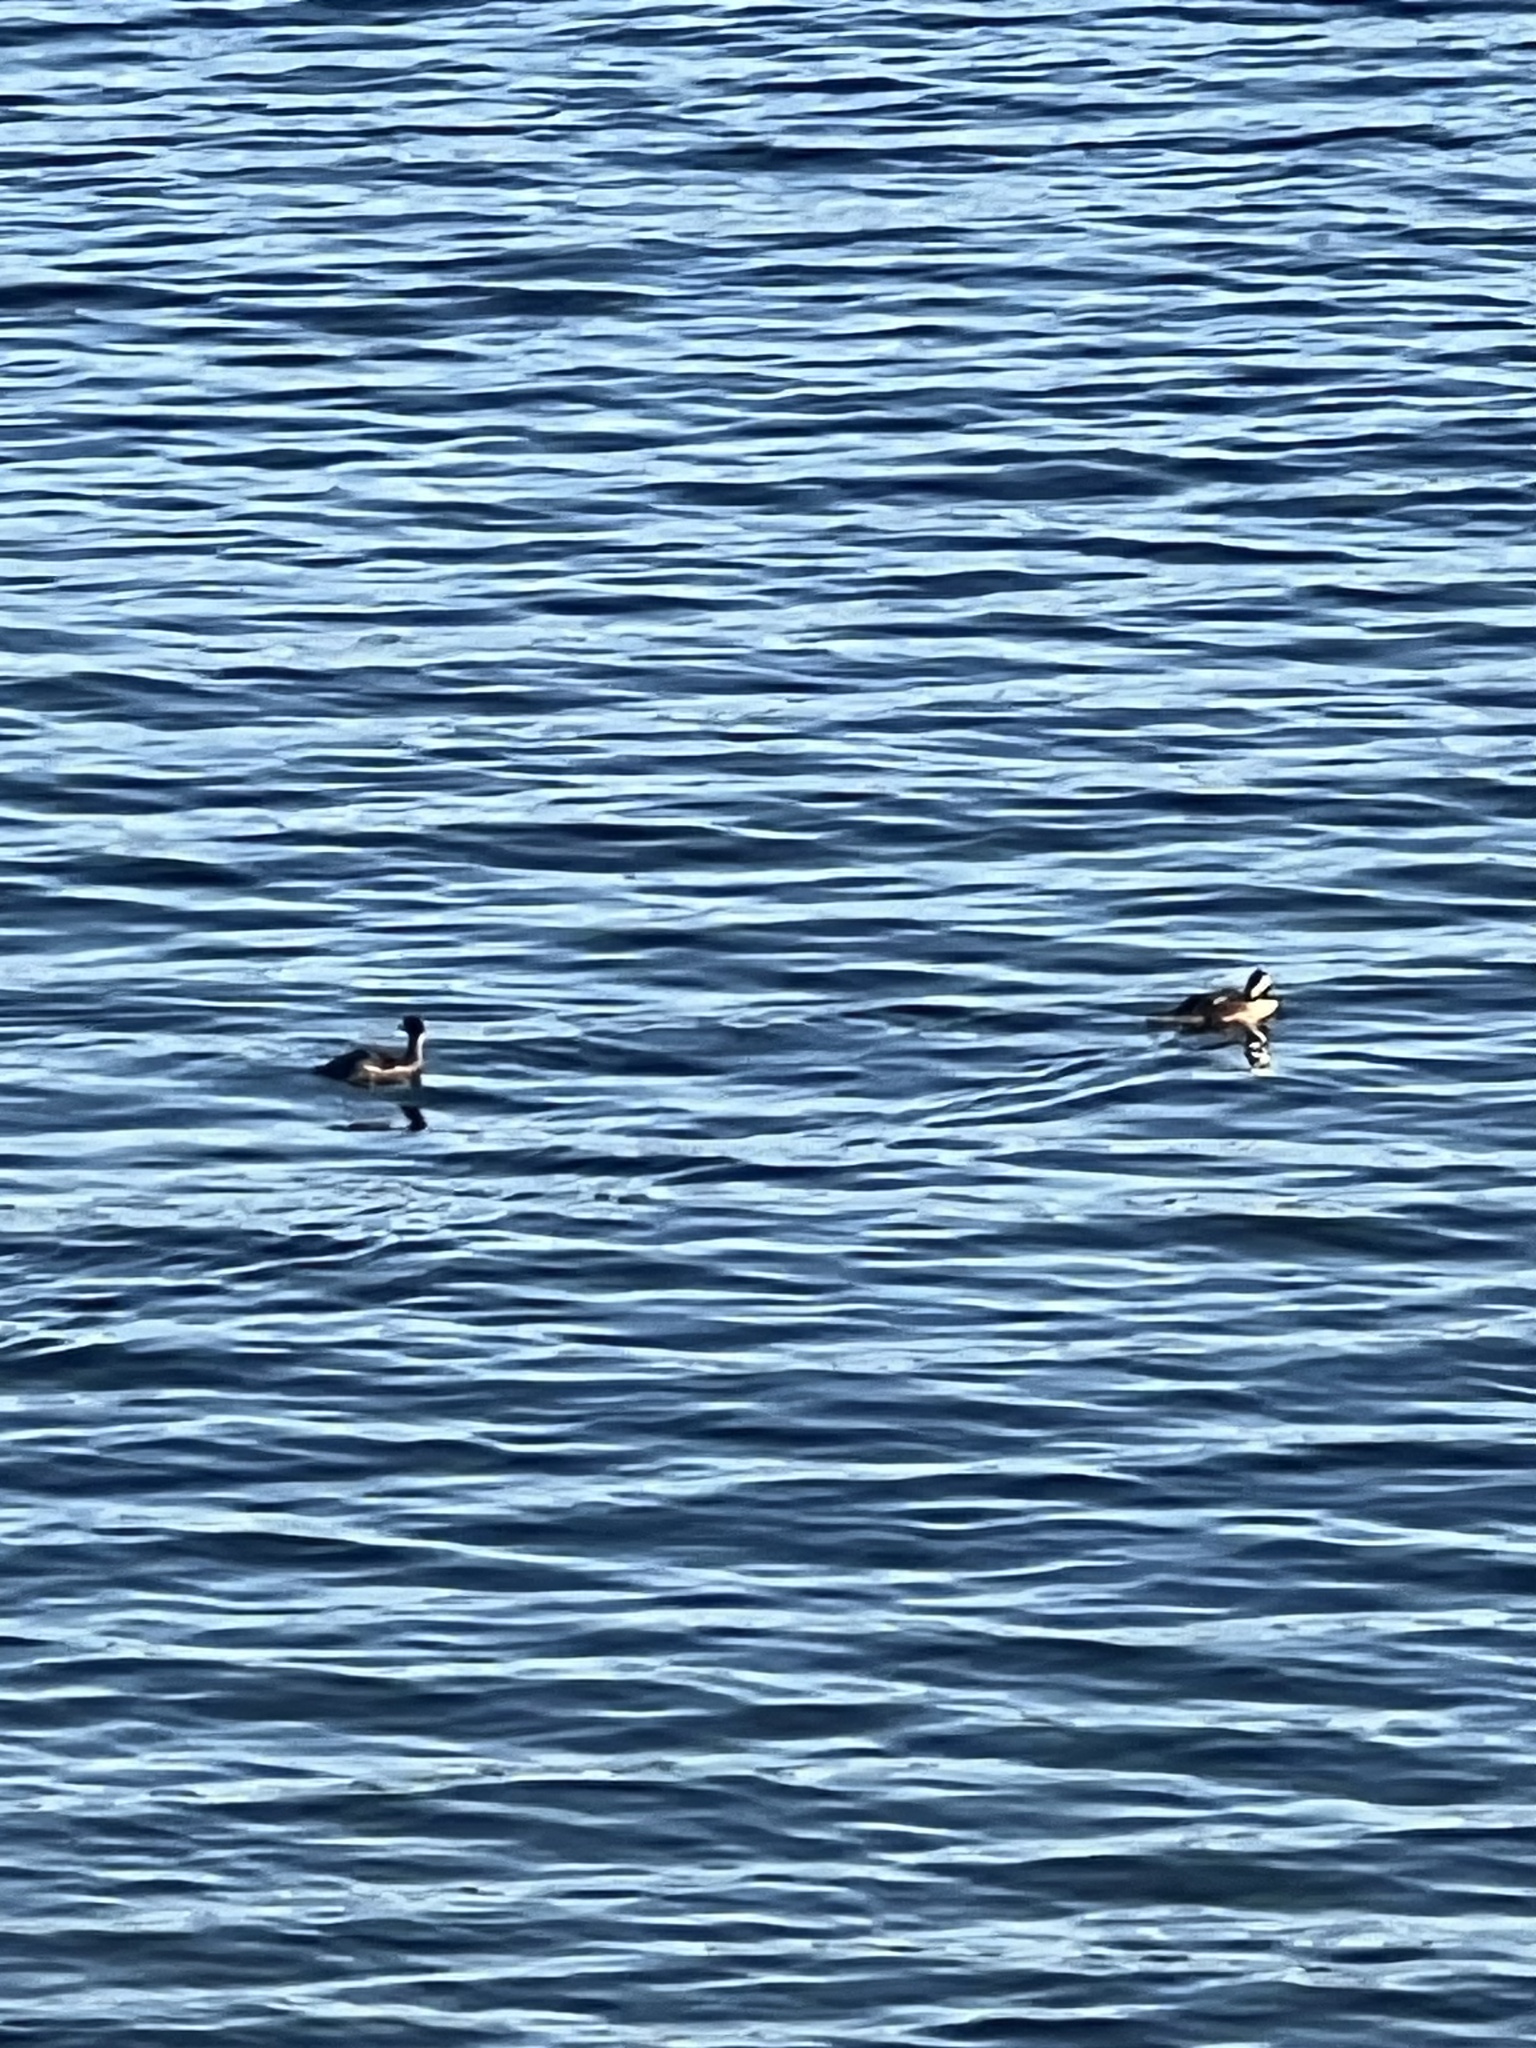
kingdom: Animalia
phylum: Chordata
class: Aves
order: Anseriformes
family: Anatidae
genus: Lophodytes
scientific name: Lophodytes cucullatus
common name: Hooded merganser
